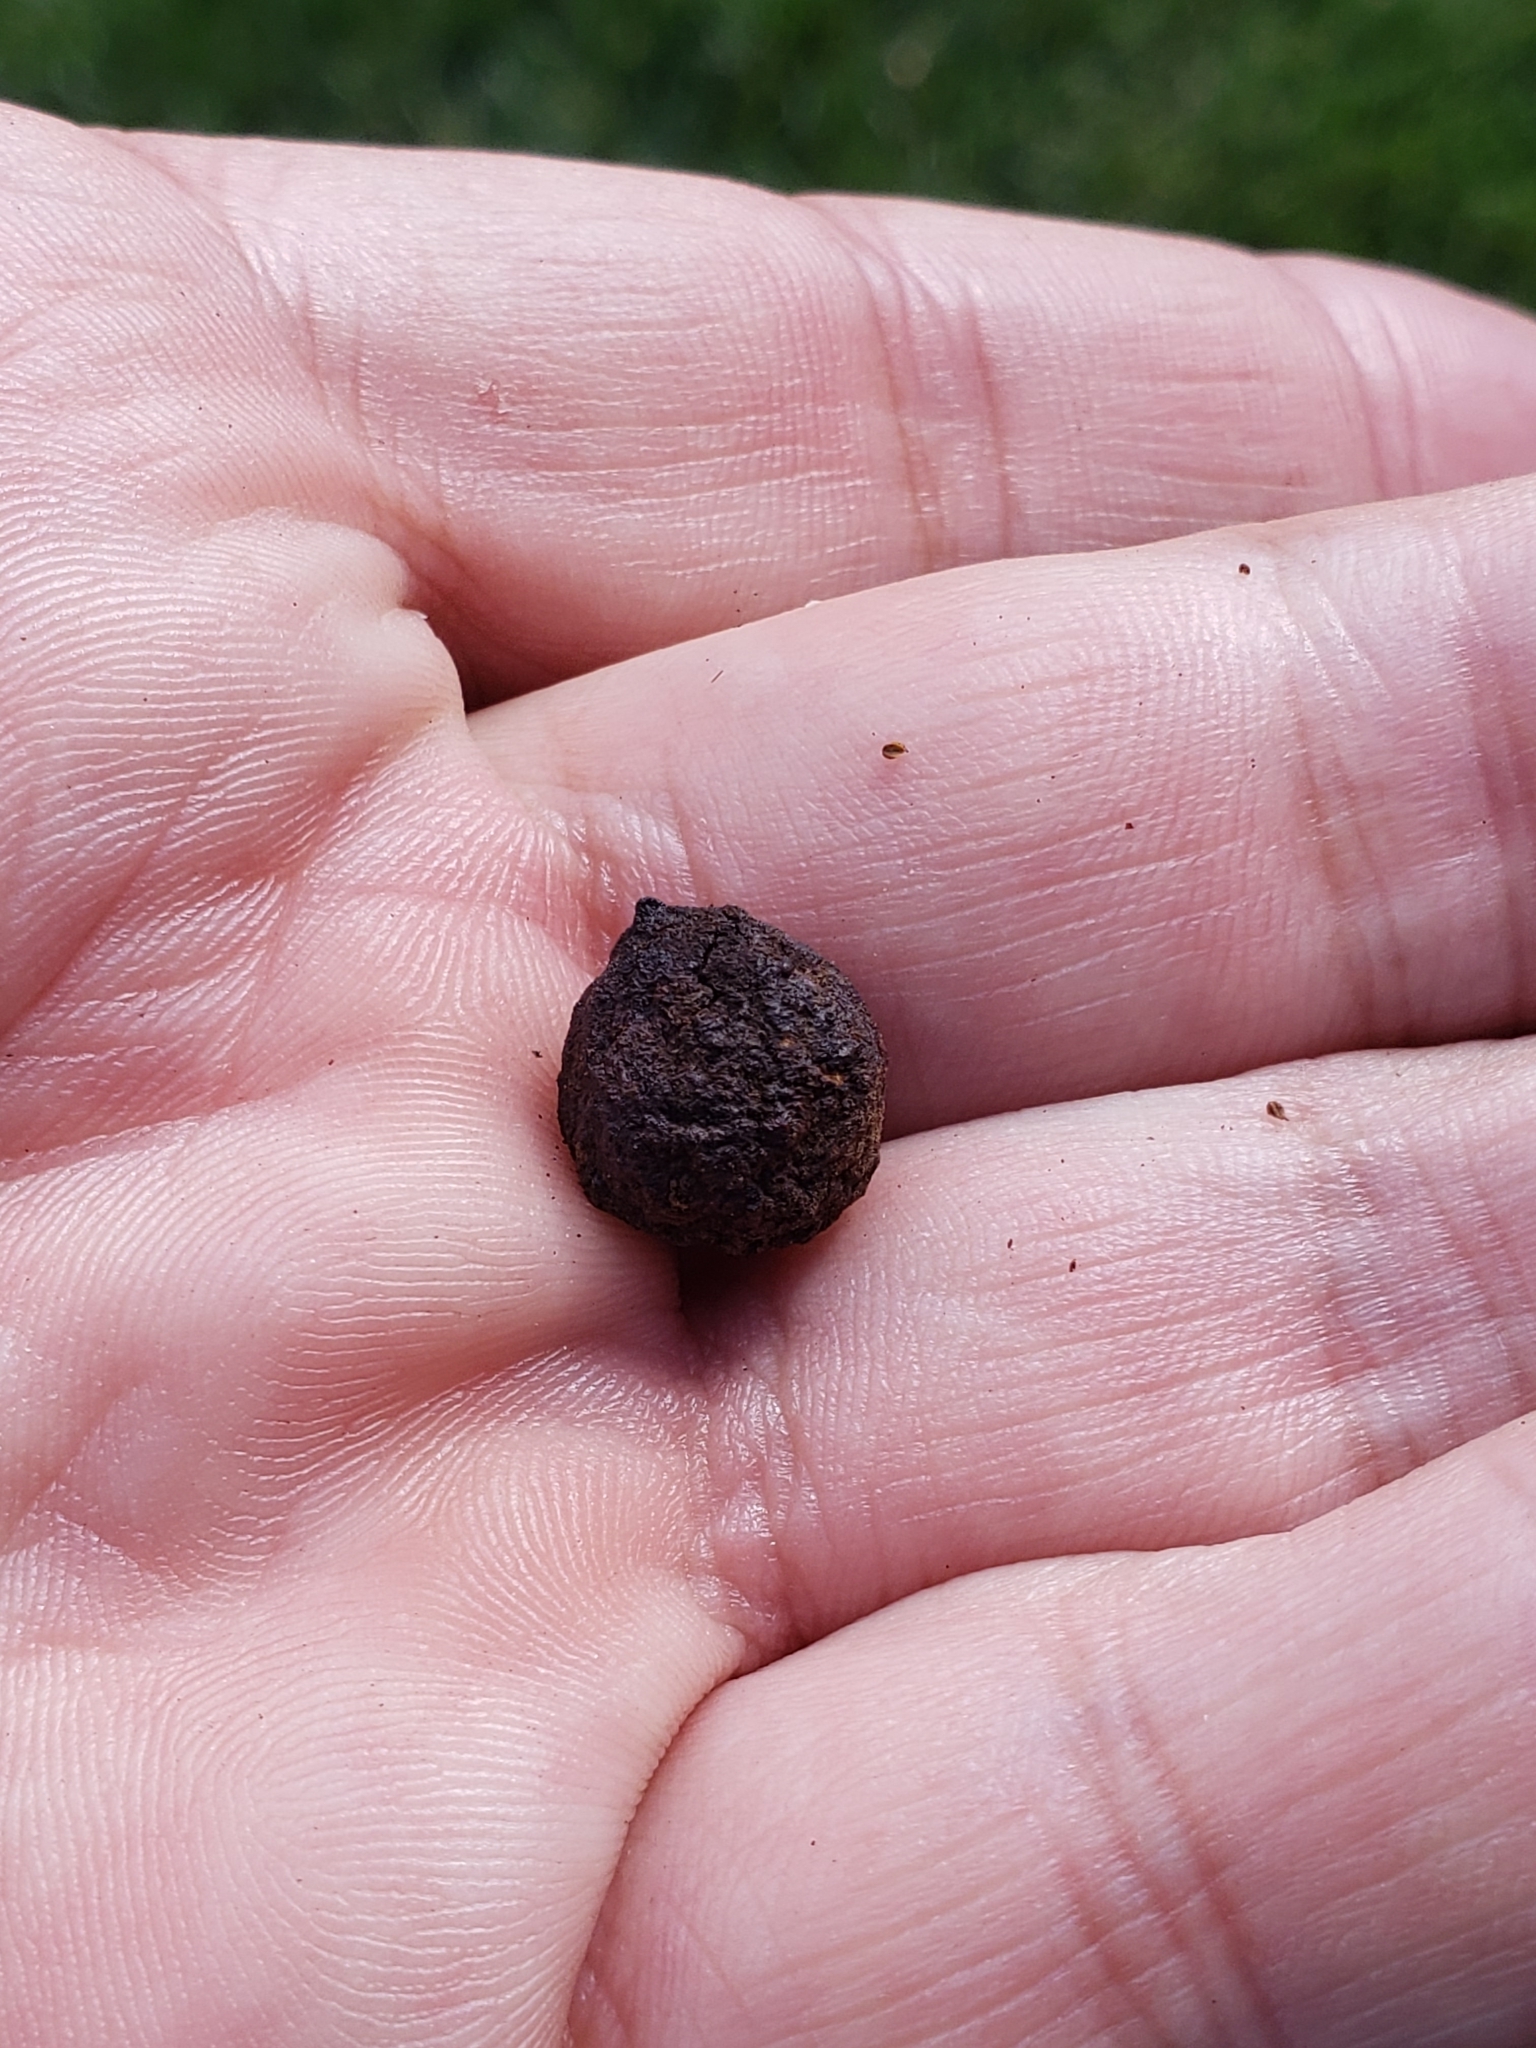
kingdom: Animalia
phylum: Arthropoda
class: Insecta
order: Hymenoptera
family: Cynipidae
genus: Disholcaspis
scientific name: Disholcaspis
